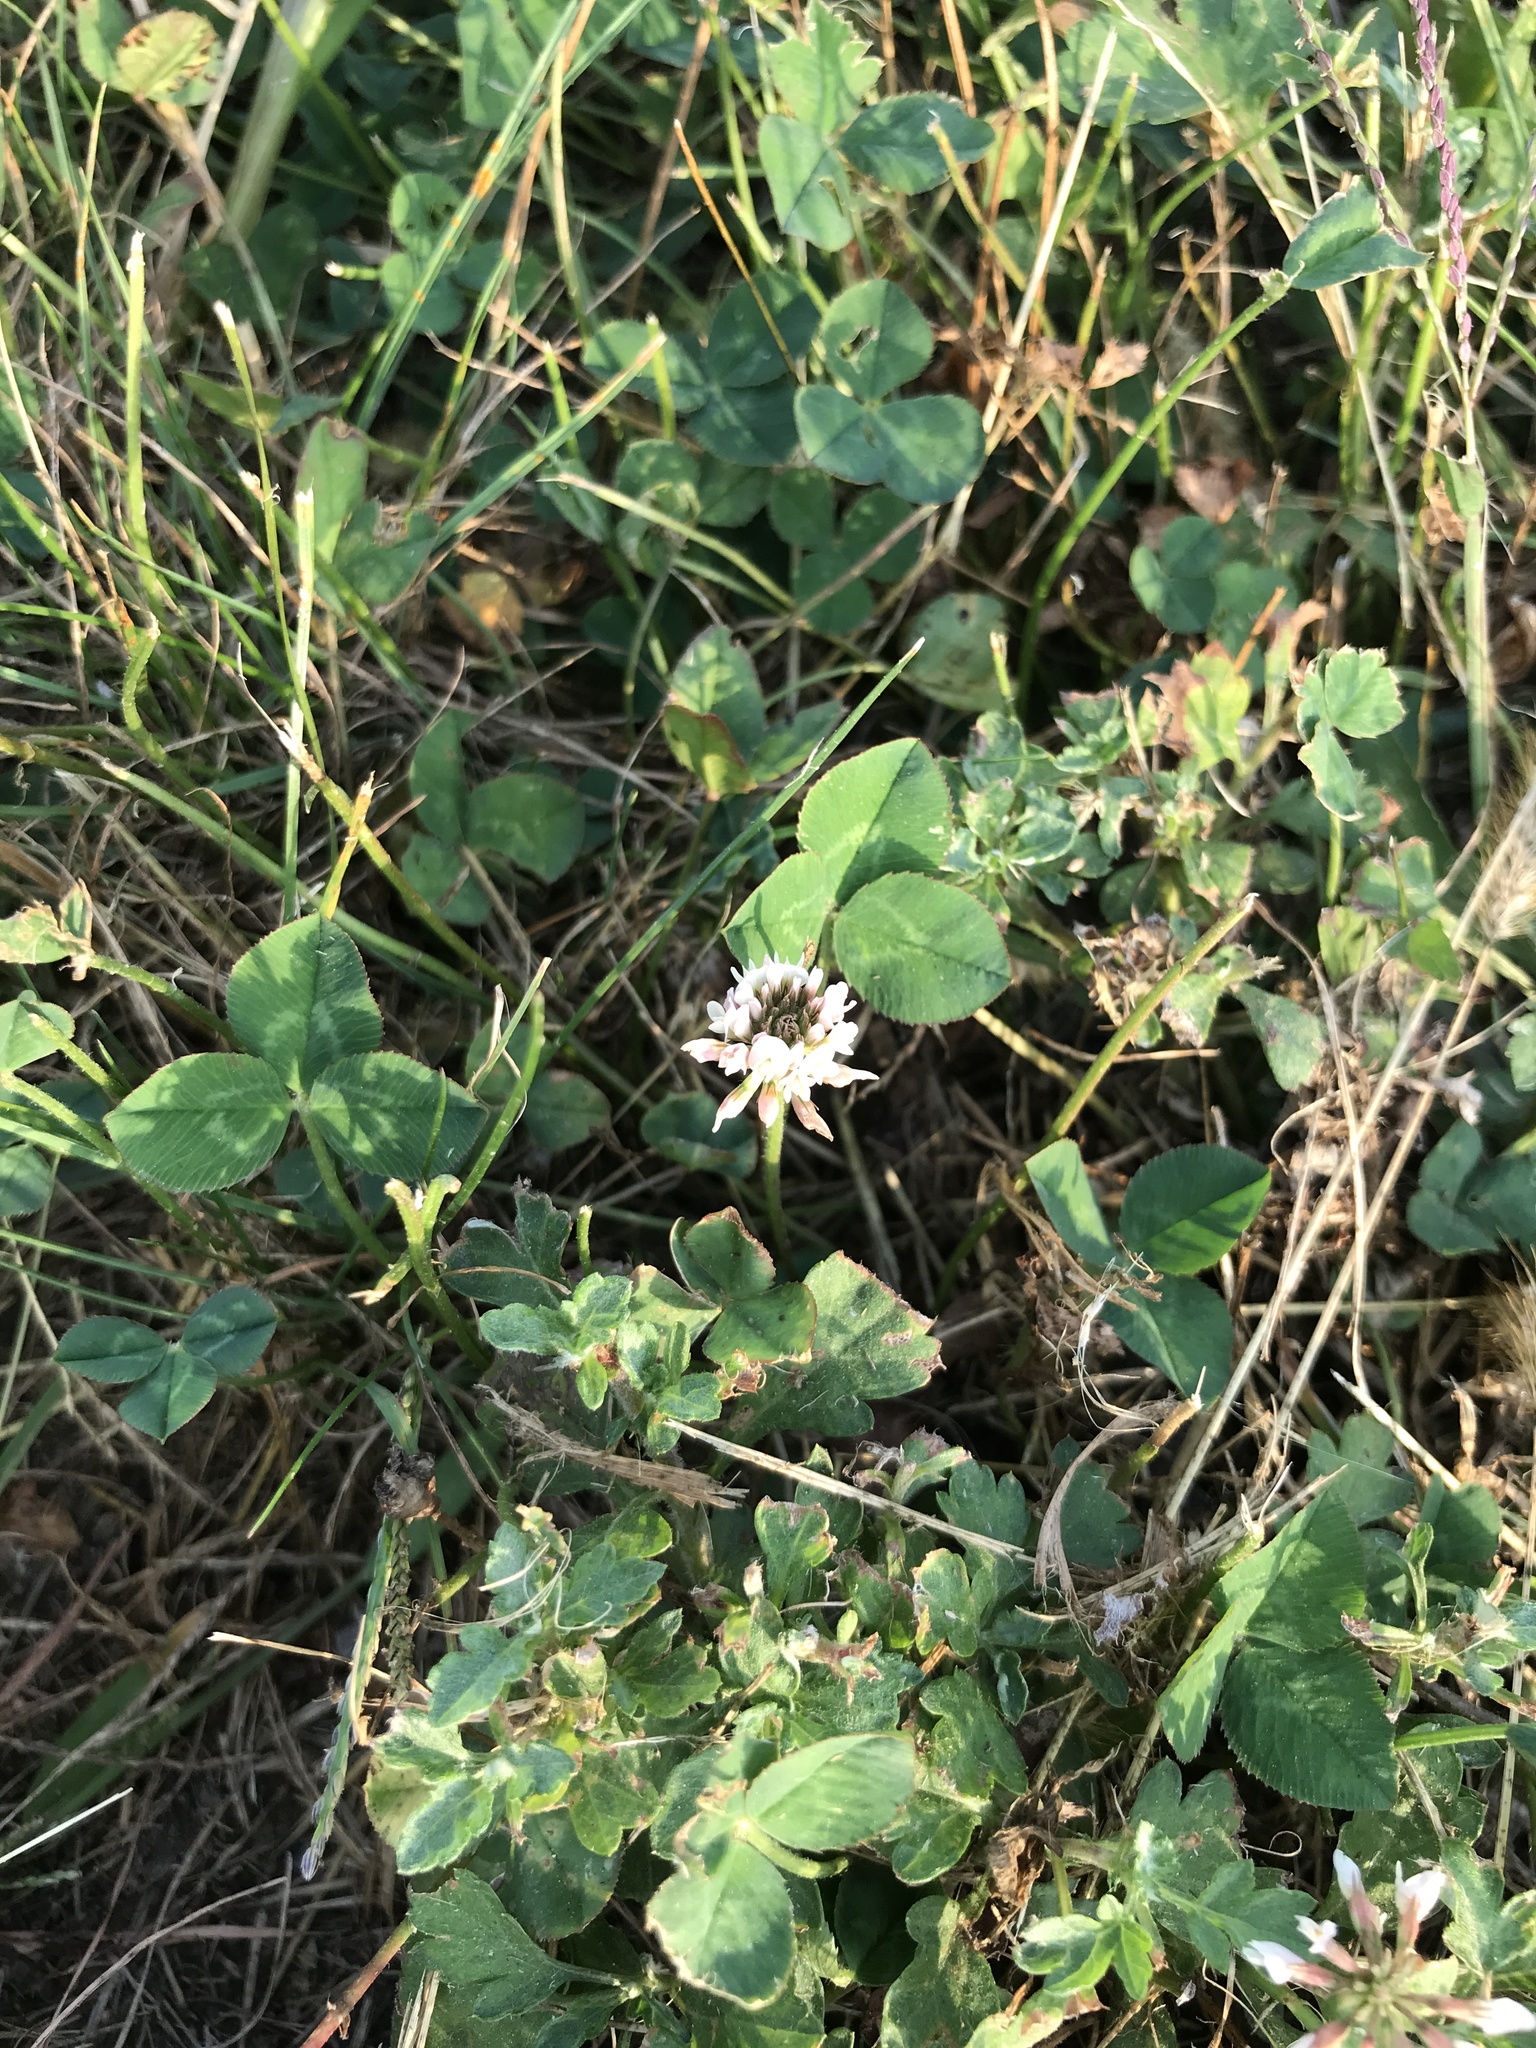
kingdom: Plantae
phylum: Tracheophyta
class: Magnoliopsida
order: Fabales
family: Fabaceae
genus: Trifolium
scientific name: Trifolium repens
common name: White clover
